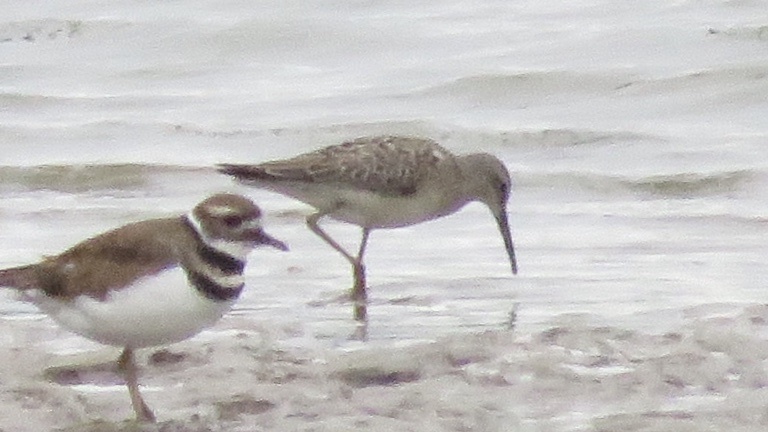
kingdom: Animalia
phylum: Chordata
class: Aves
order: Charadriiformes
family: Scolopacidae
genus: Calidris
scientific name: Calidris himantopus
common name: Stilt sandpiper
